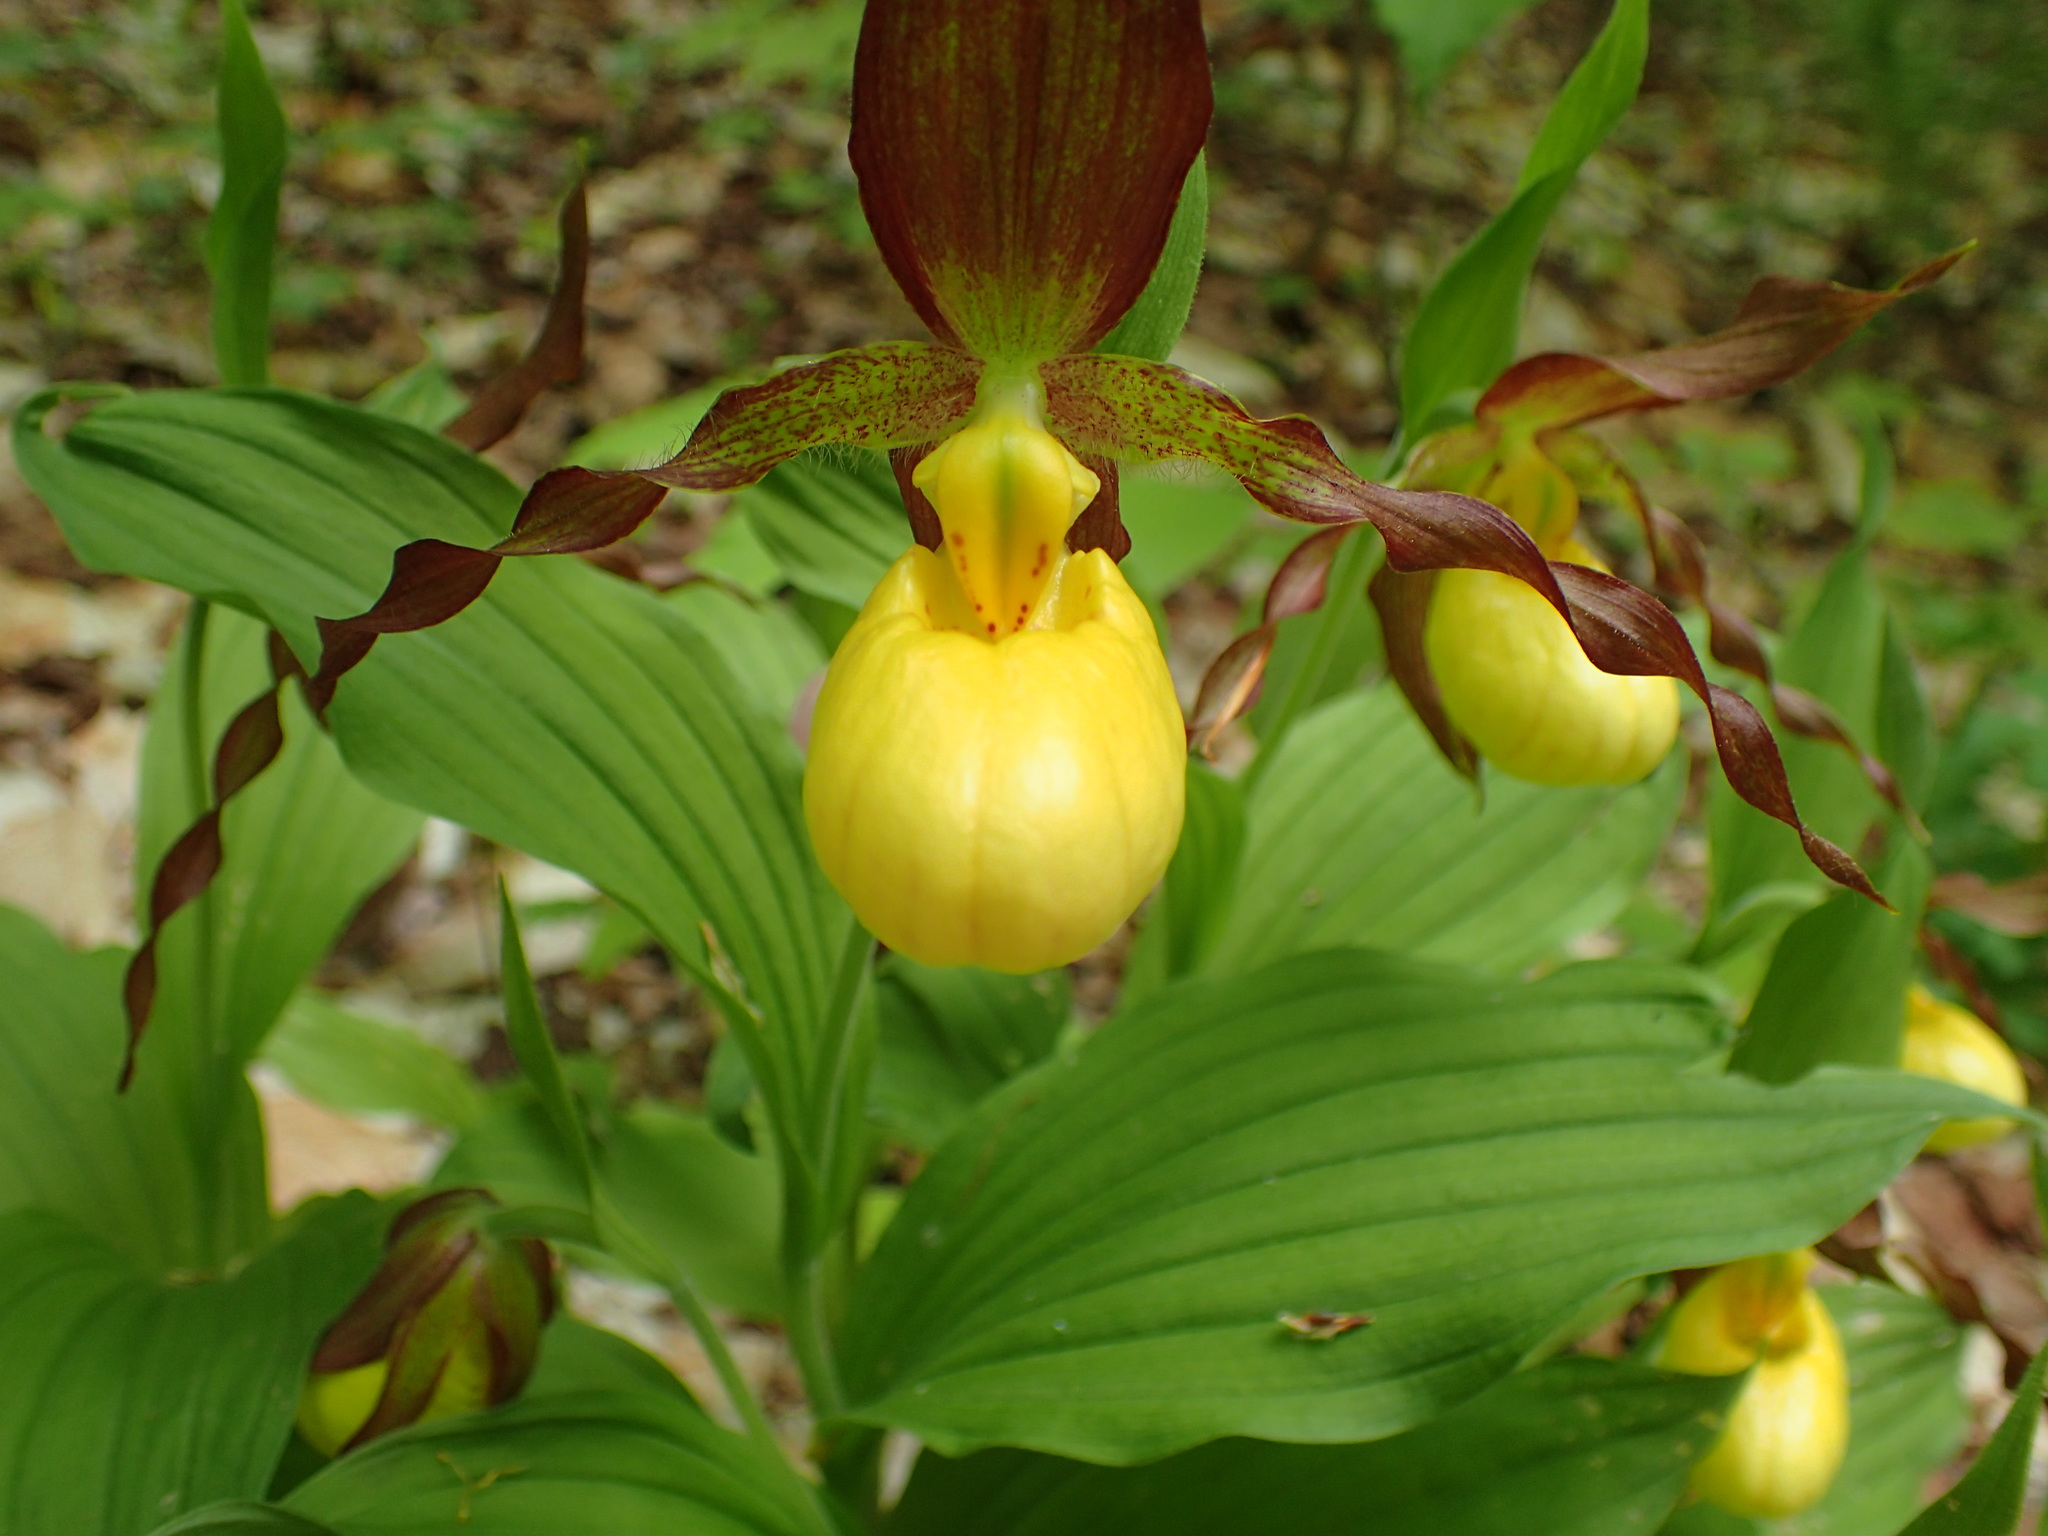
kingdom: Plantae
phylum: Tracheophyta
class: Liliopsida
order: Asparagales
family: Orchidaceae
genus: Cypripedium
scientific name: Cypripedium parviflorum
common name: American yellow lady's-slipper
